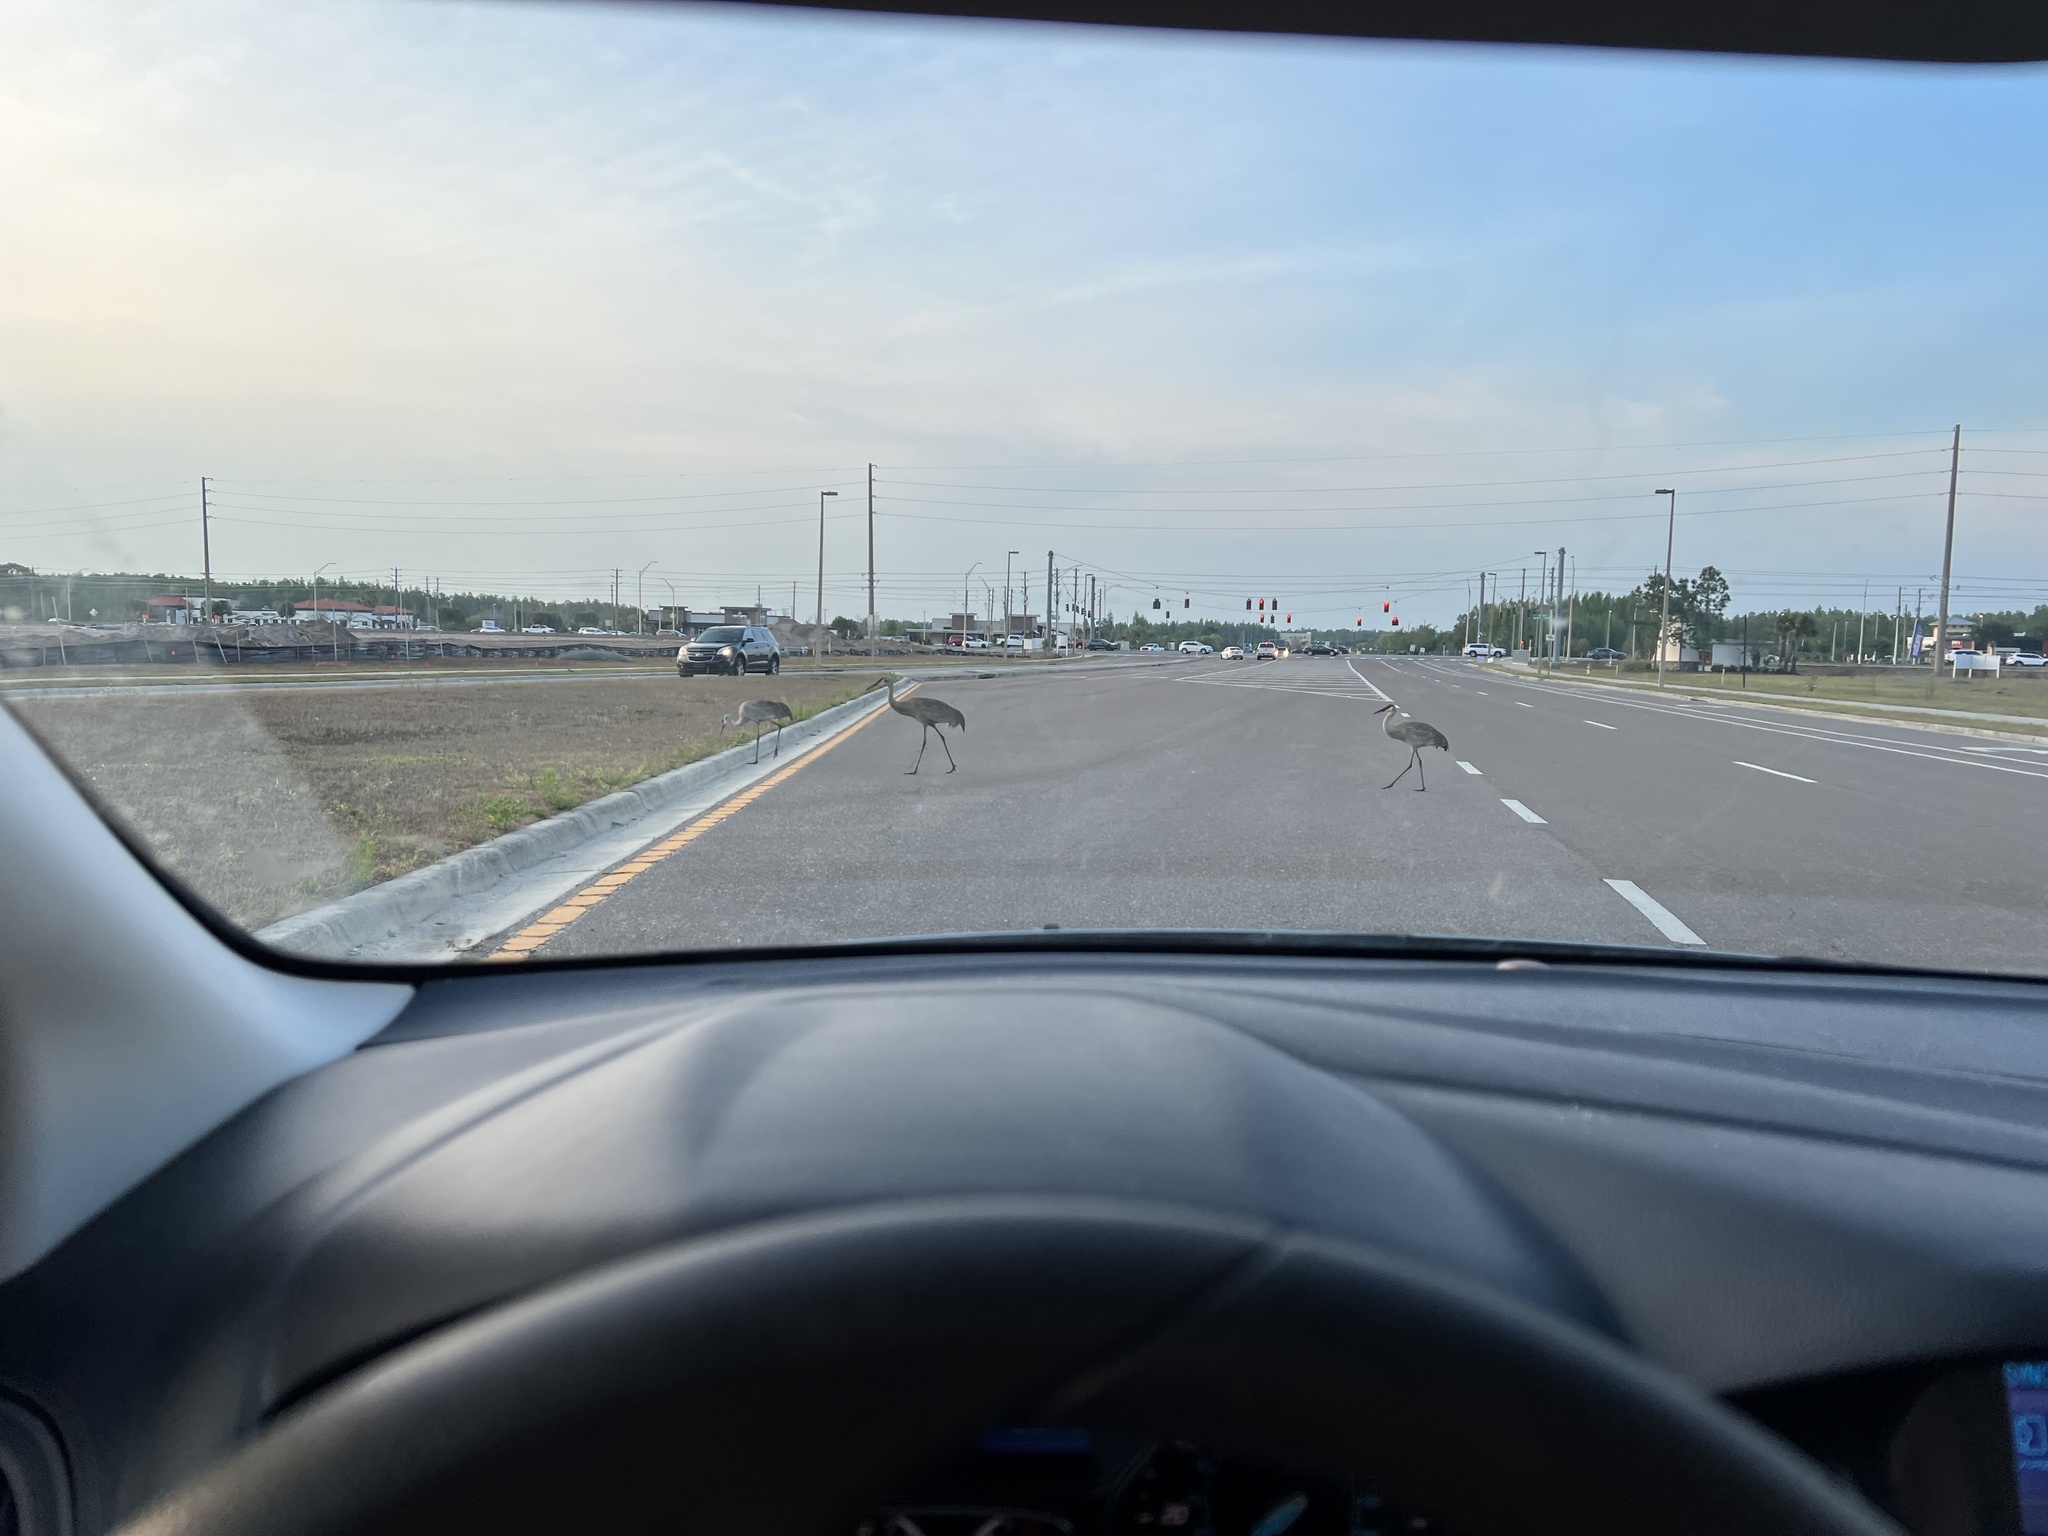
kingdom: Animalia
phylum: Chordata
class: Aves
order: Gruiformes
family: Gruidae
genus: Grus
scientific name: Grus canadensis
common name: Sandhill crane
